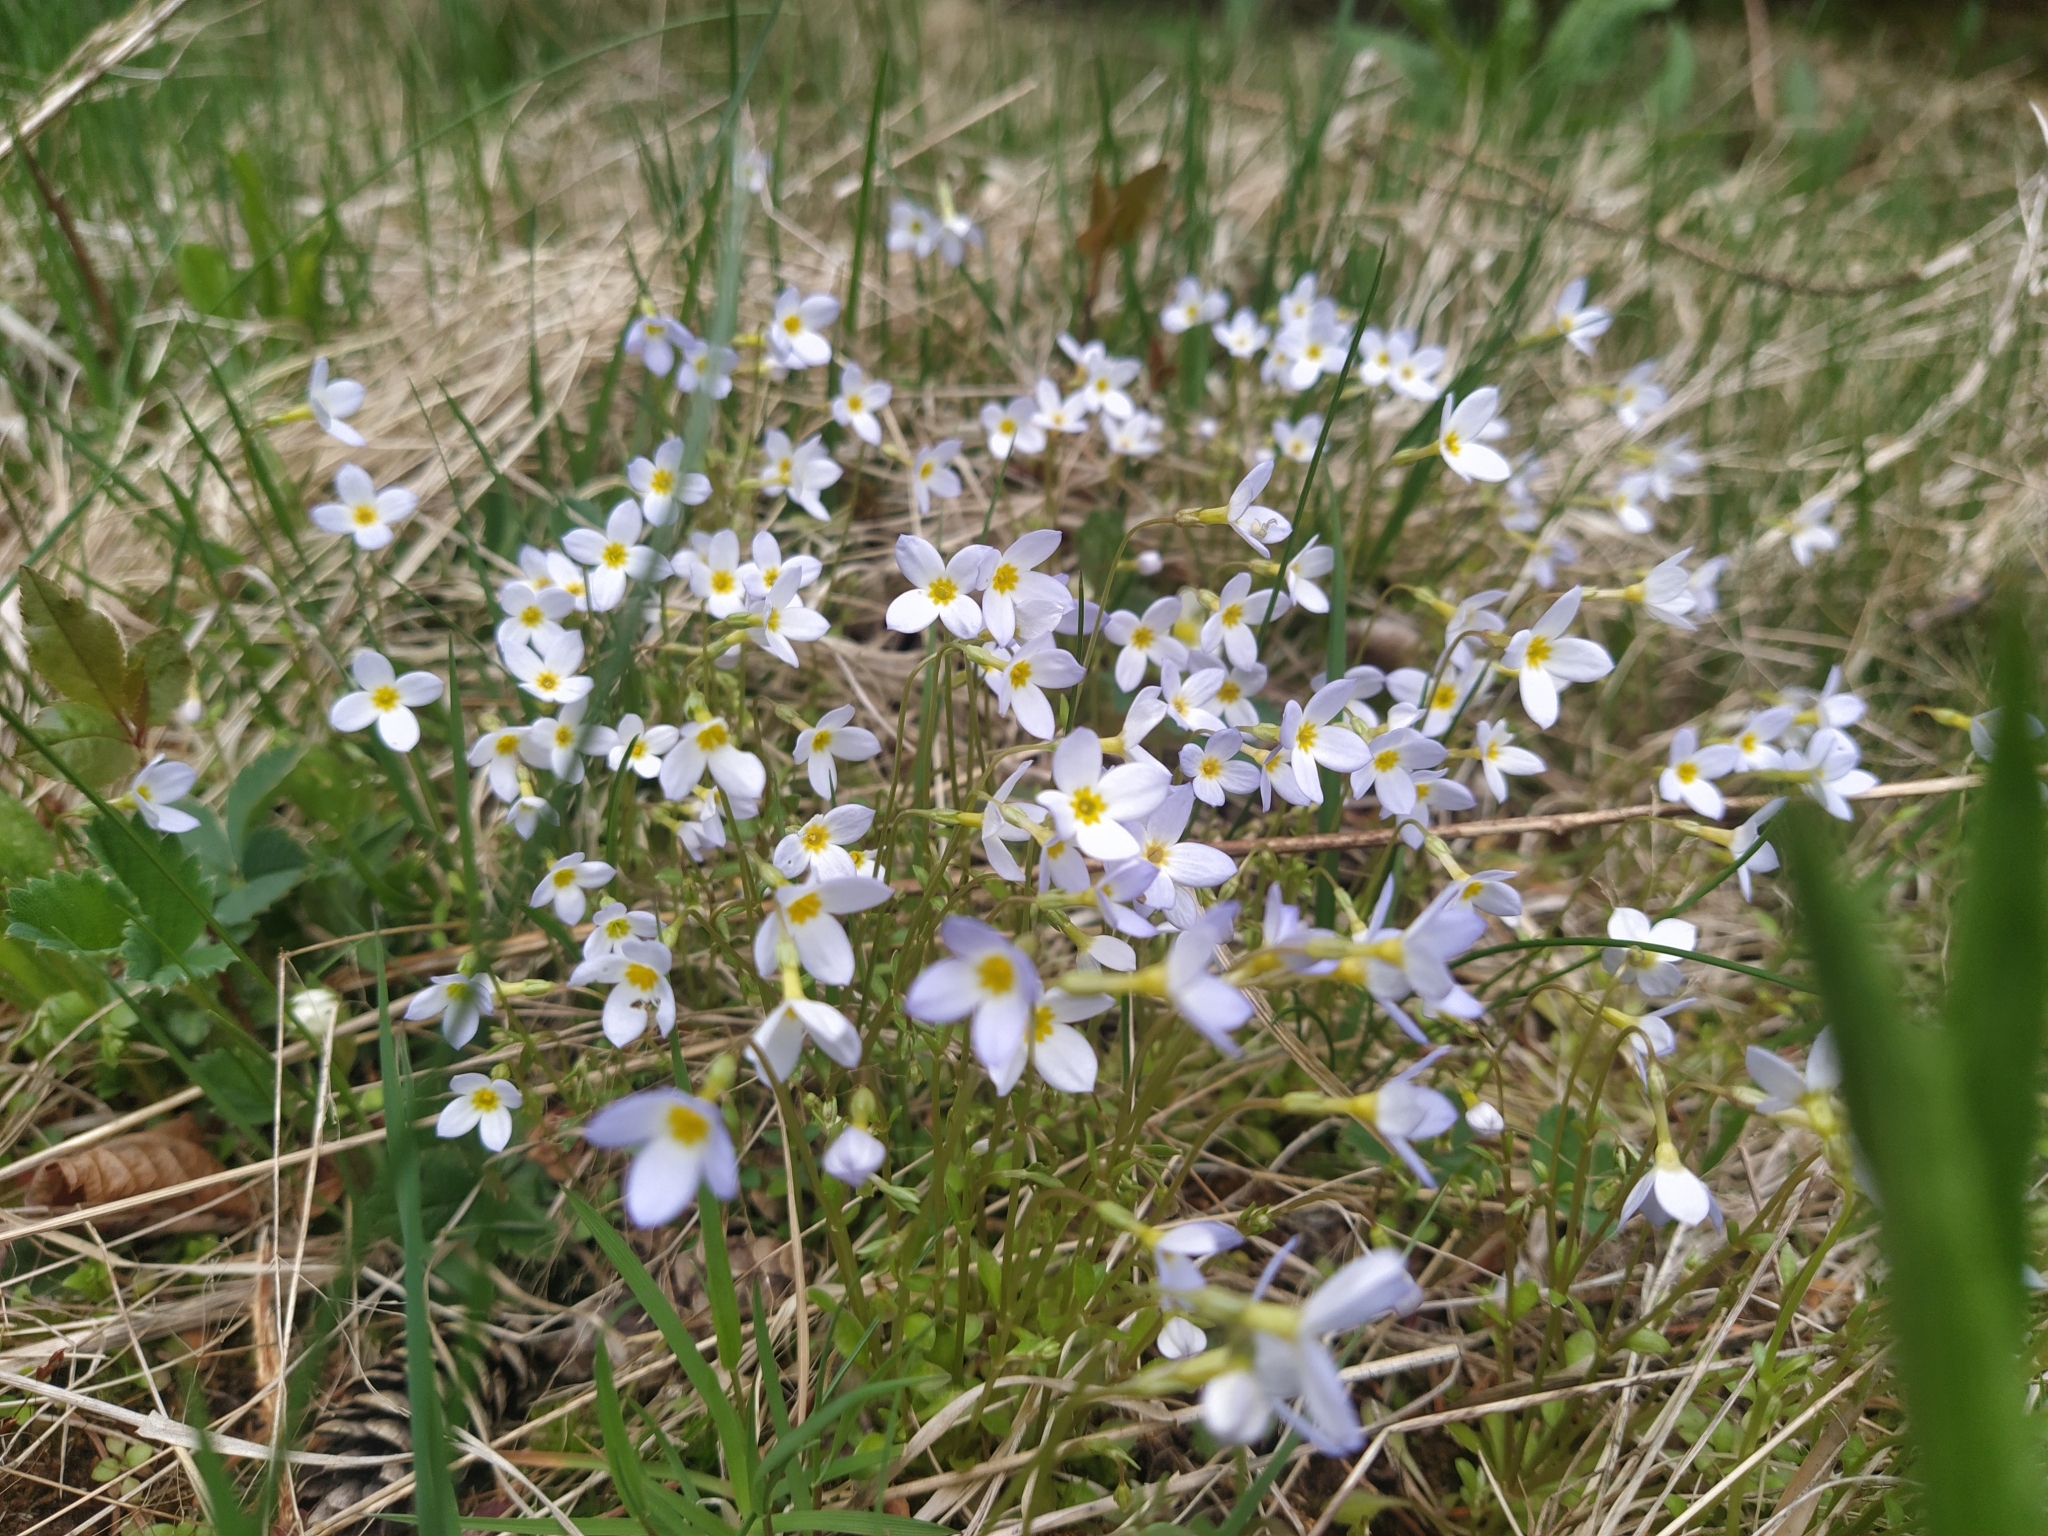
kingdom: Plantae
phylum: Tracheophyta
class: Magnoliopsida
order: Gentianales
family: Rubiaceae
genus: Houstonia
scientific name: Houstonia caerulea
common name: Bluets
